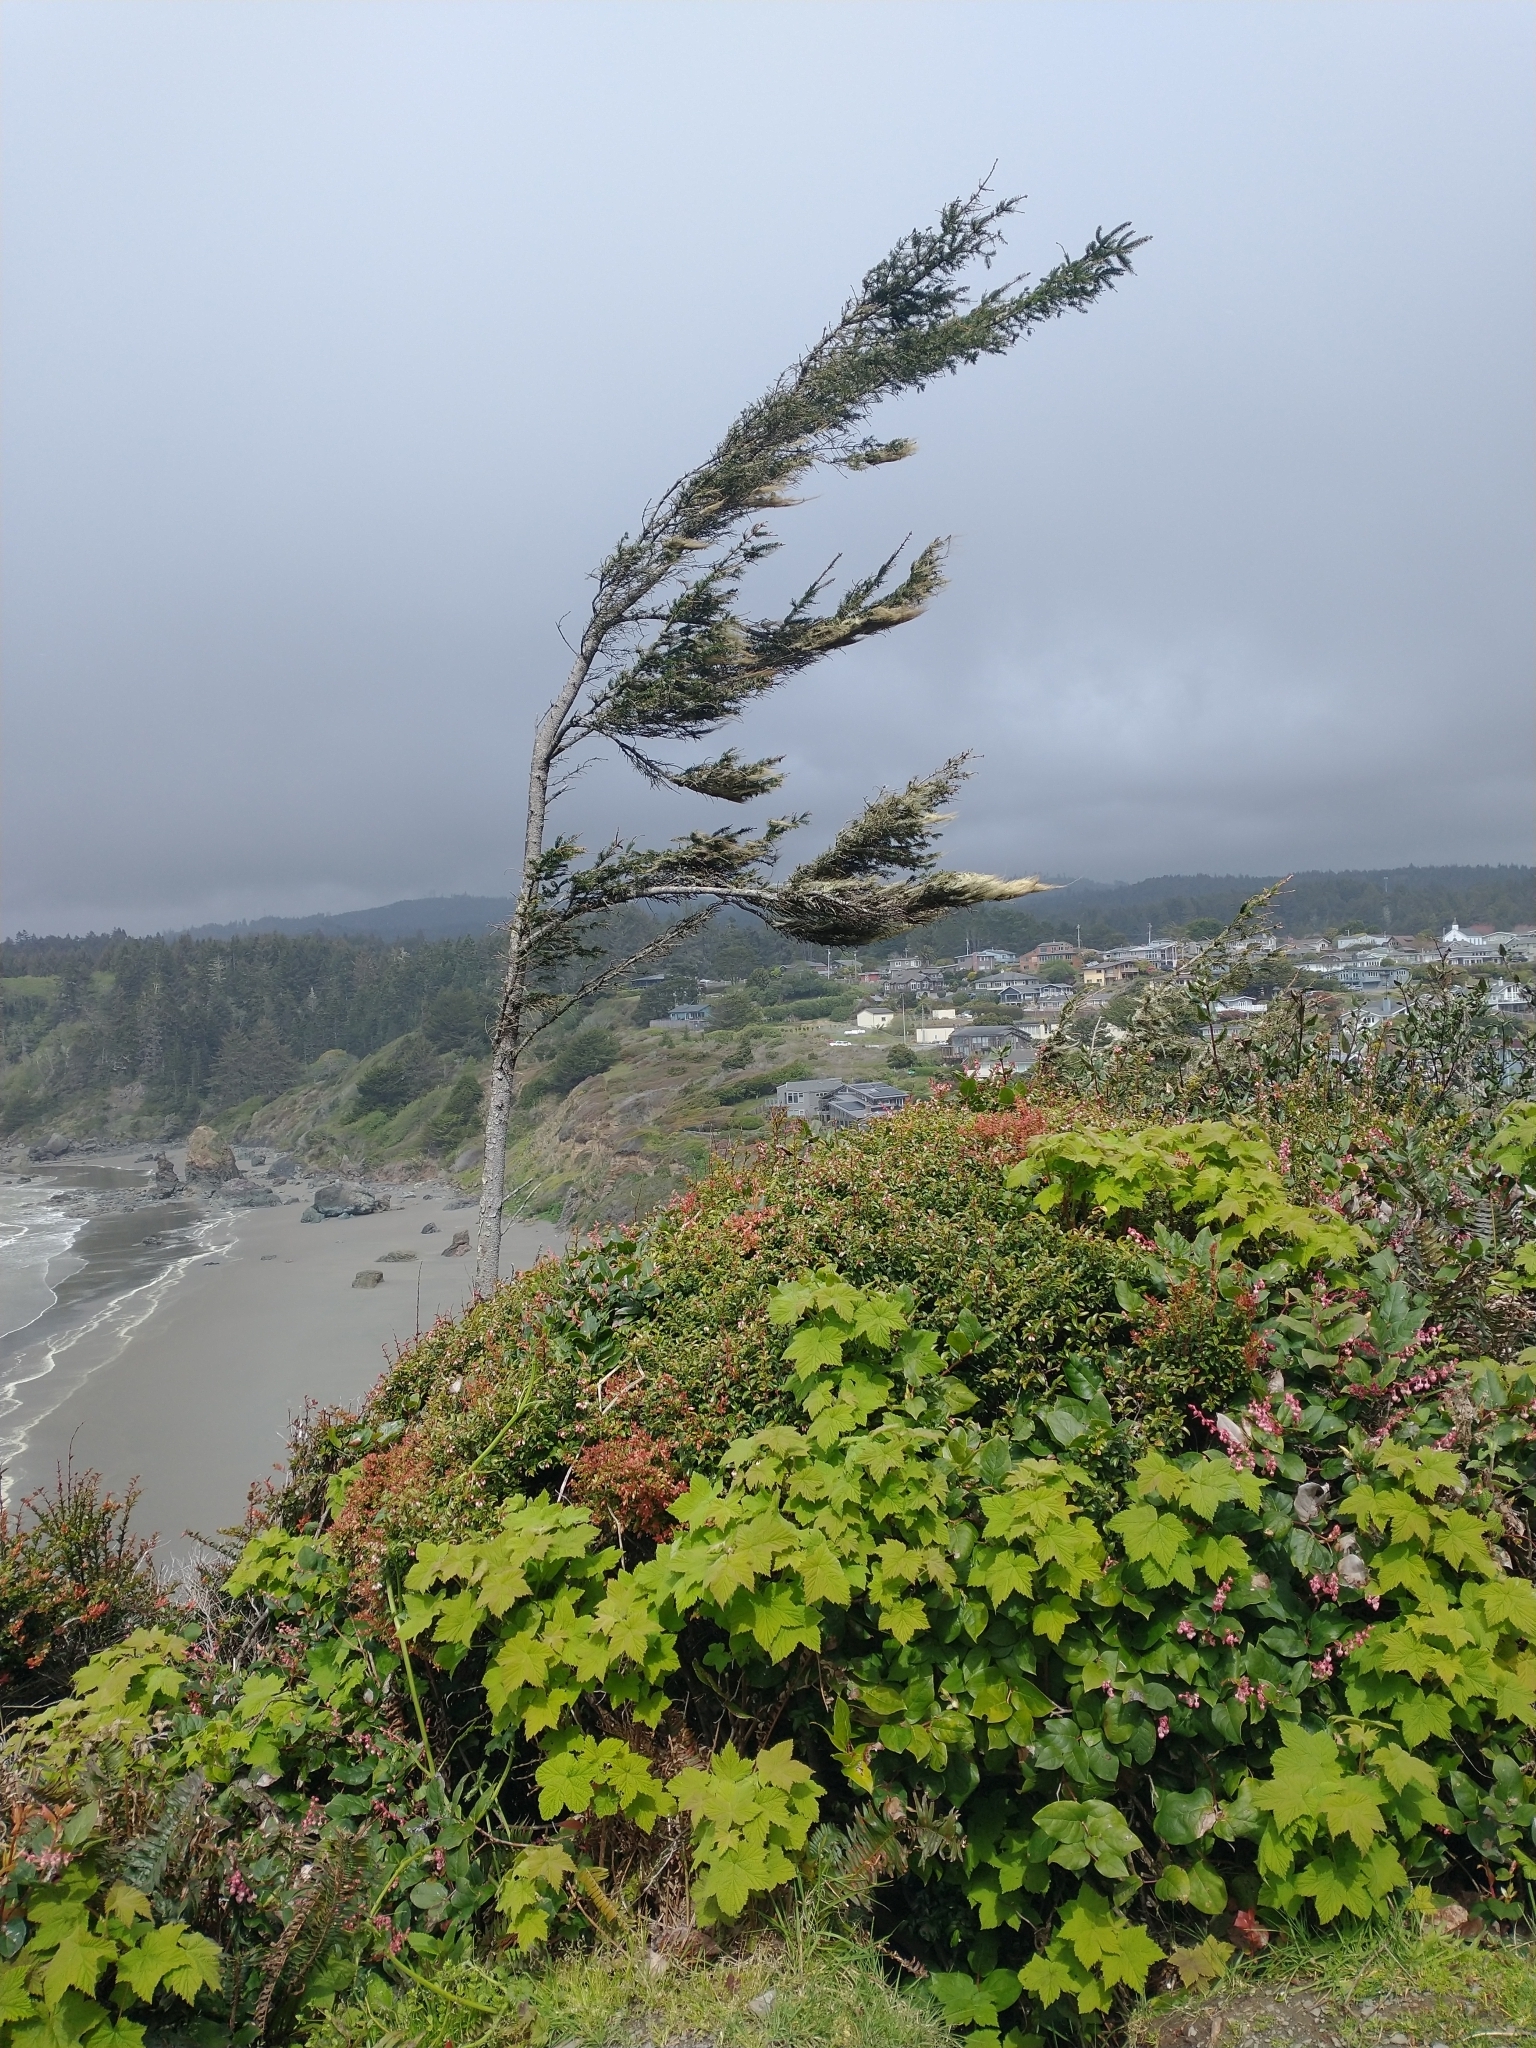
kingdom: Plantae
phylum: Tracheophyta
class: Magnoliopsida
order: Ericales
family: Ericaceae
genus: Gaultheria
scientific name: Gaultheria shallon
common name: Shallon
